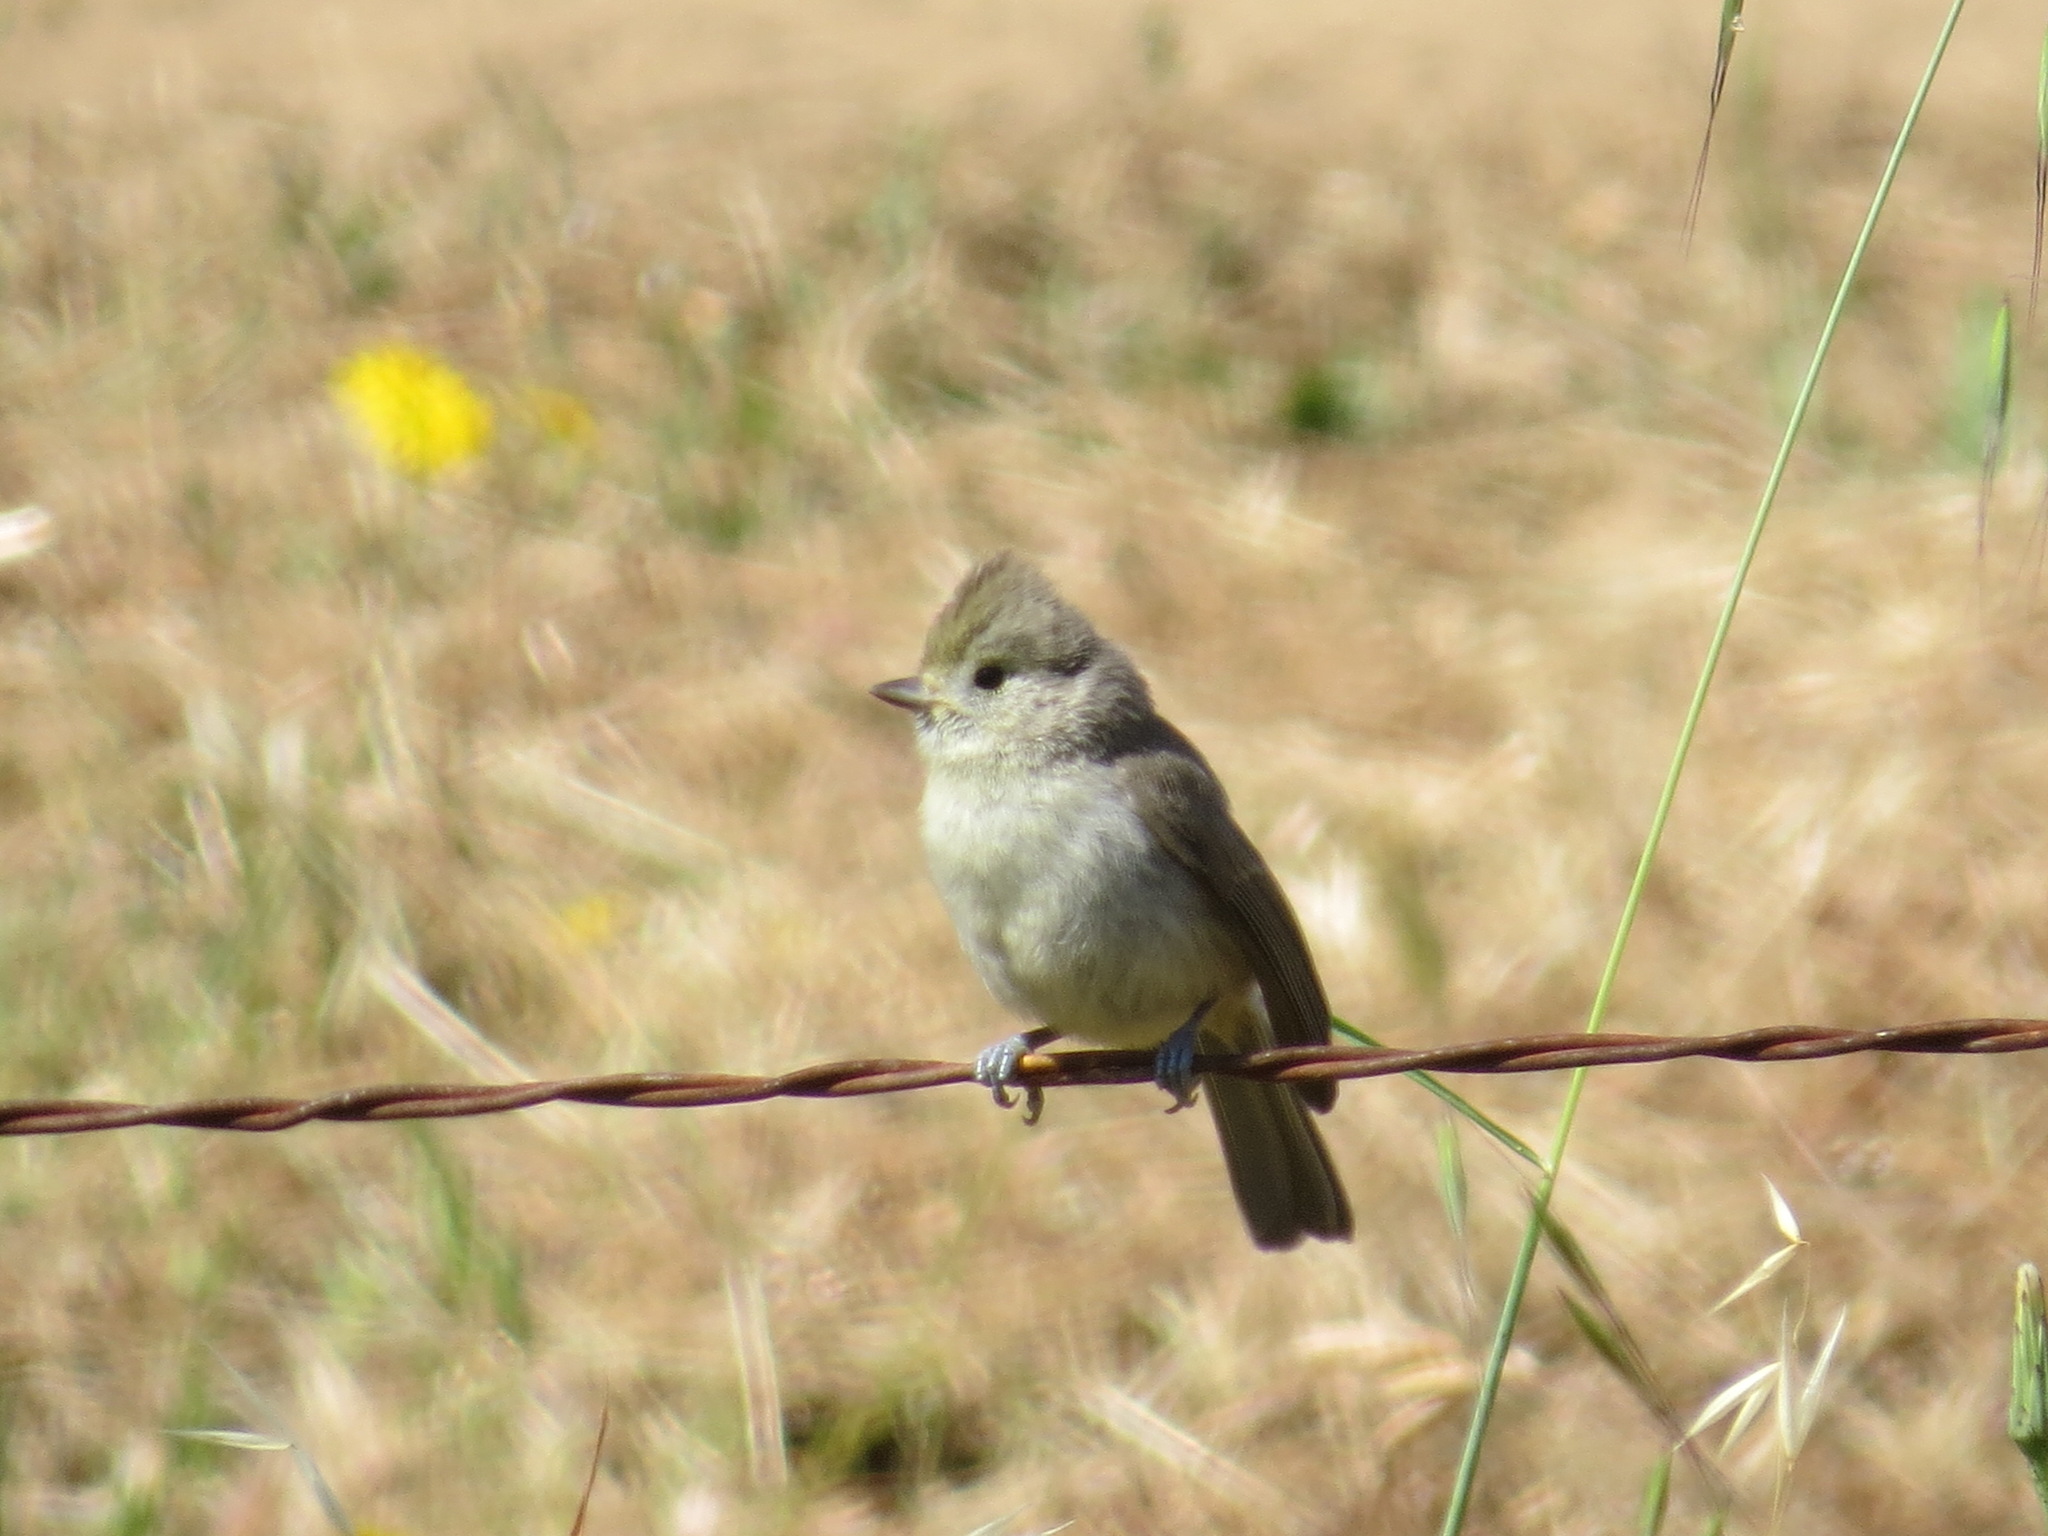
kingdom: Animalia
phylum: Chordata
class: Aves
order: Passeriformes
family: Paridae
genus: Baeolophus
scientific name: Baeolophus inornatus
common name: Oak titmouse
